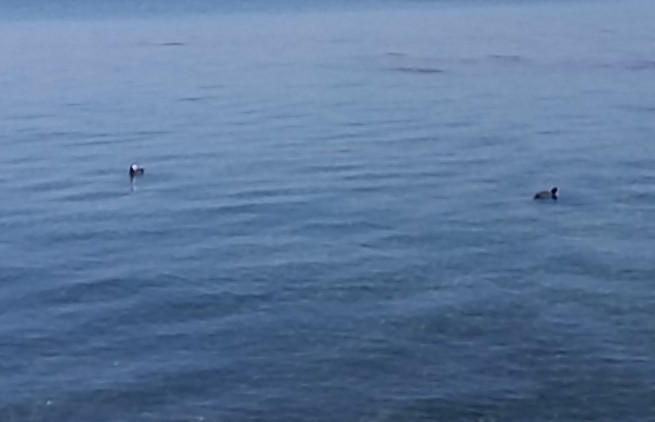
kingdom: Animalia
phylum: Chordata
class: Aves
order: Gruiformes
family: Rallidae
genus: Fulica
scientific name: Fulica atra
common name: Eurasian coot
